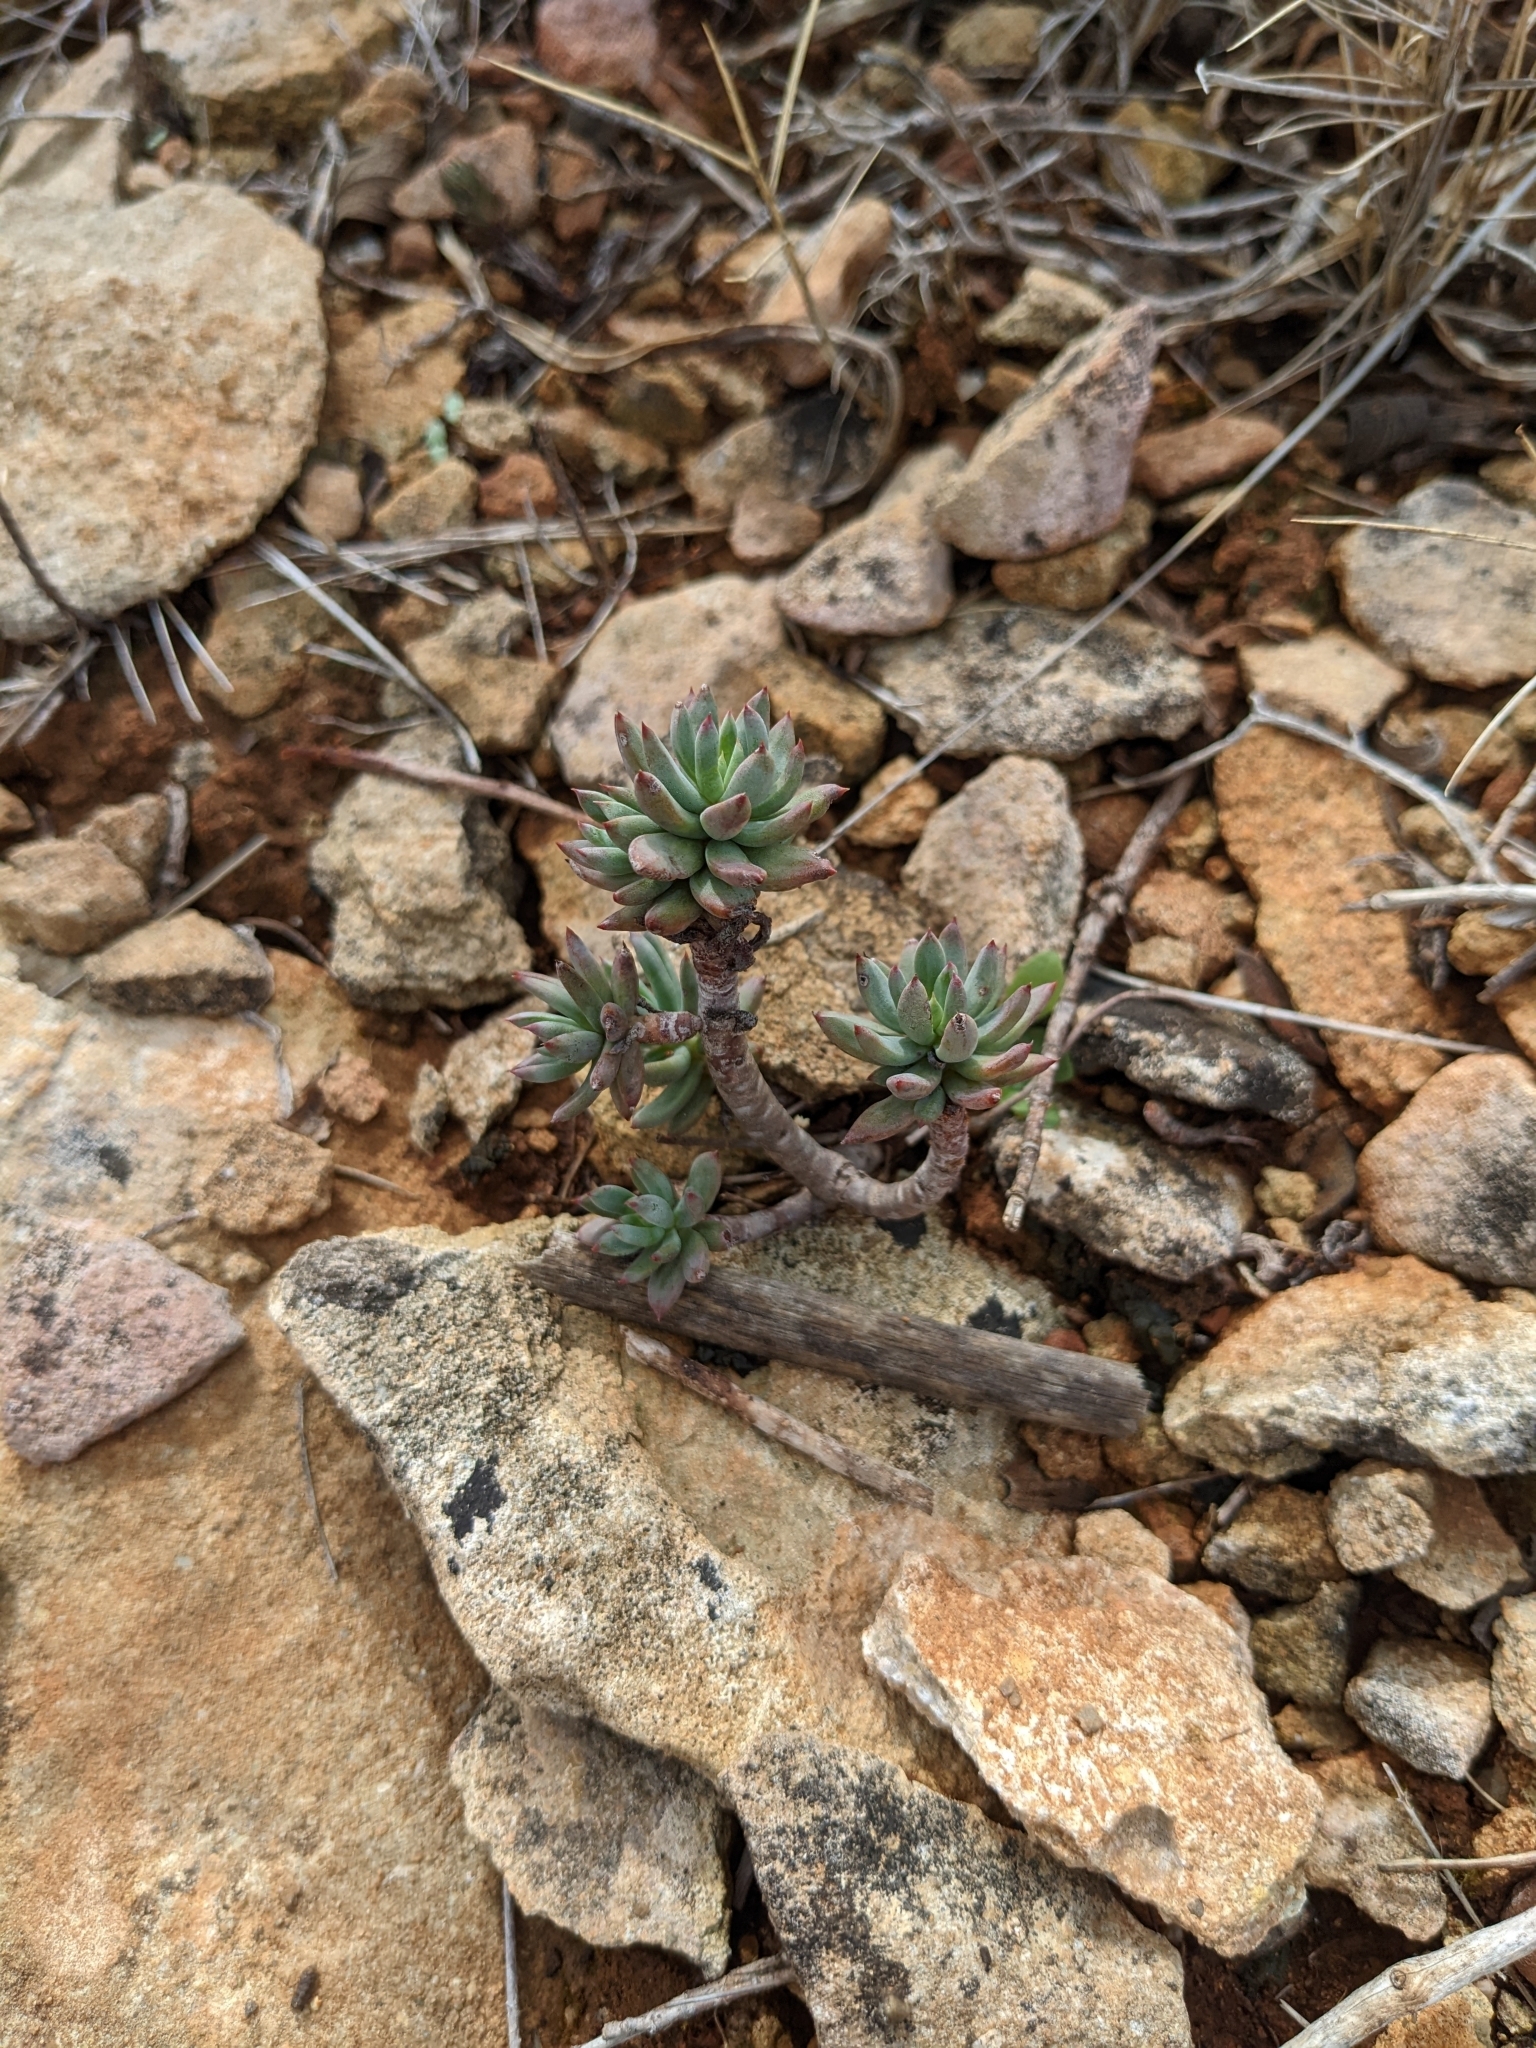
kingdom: Plantae
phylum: Tracheophyta
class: Magnoliopsida
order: Saxifragales
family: Crassulaceae
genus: Petrosedum
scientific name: Petrosedum sediforme
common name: Pale stonecrop
